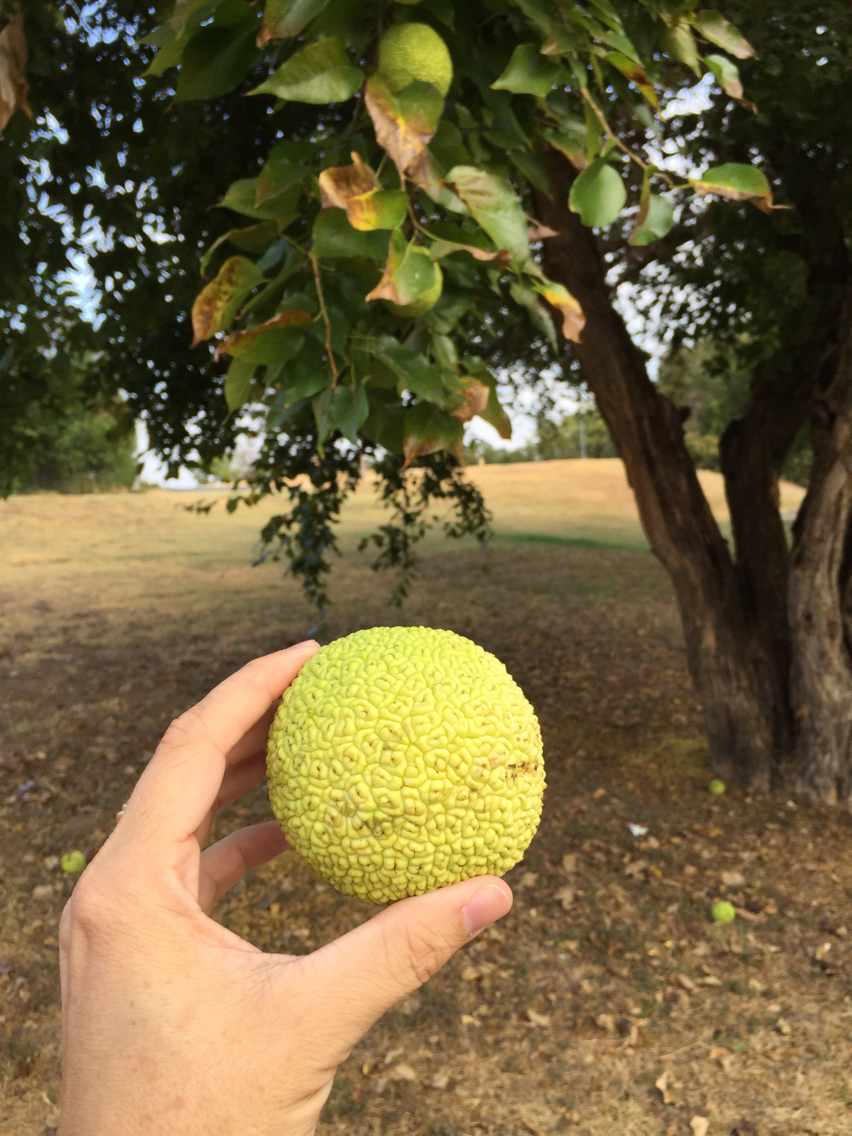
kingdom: Plantae
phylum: Tracheophyta
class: Magnoliopsida
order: Rosales
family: Moraceae
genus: Maclura
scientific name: Maclura pomifera
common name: Osage-orange
